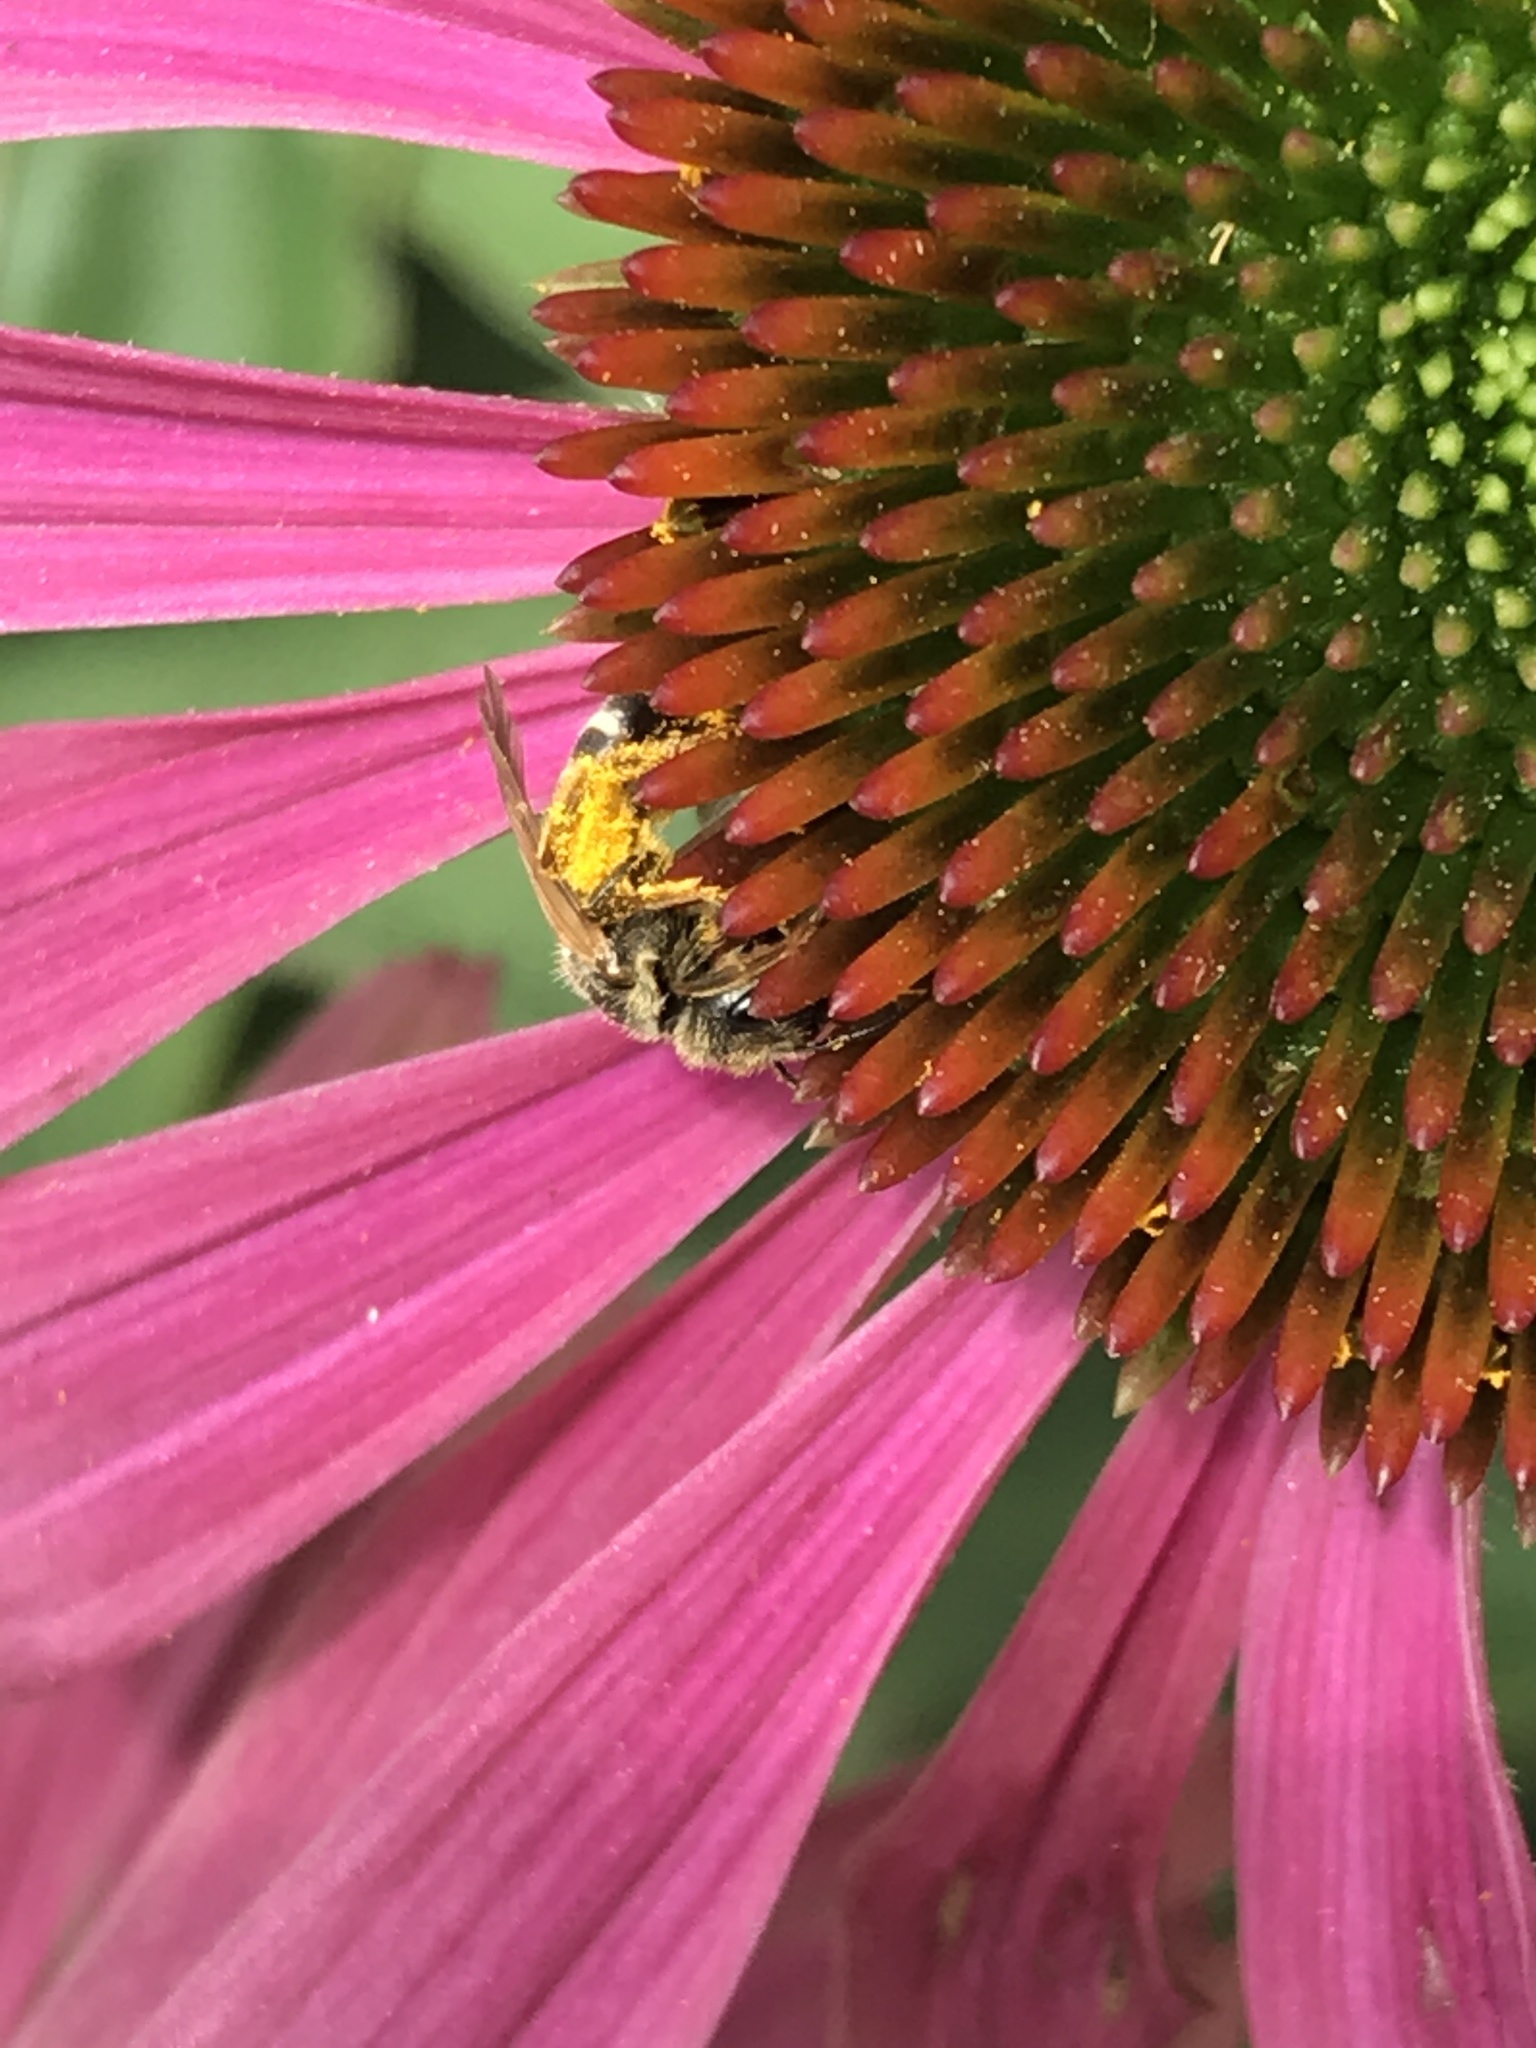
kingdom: Animalia
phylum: Arthropoda
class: Insecta
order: Hymenoptera
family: Halictidae
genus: Halictus
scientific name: Halictus ligatus
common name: Ligated furrow bee
